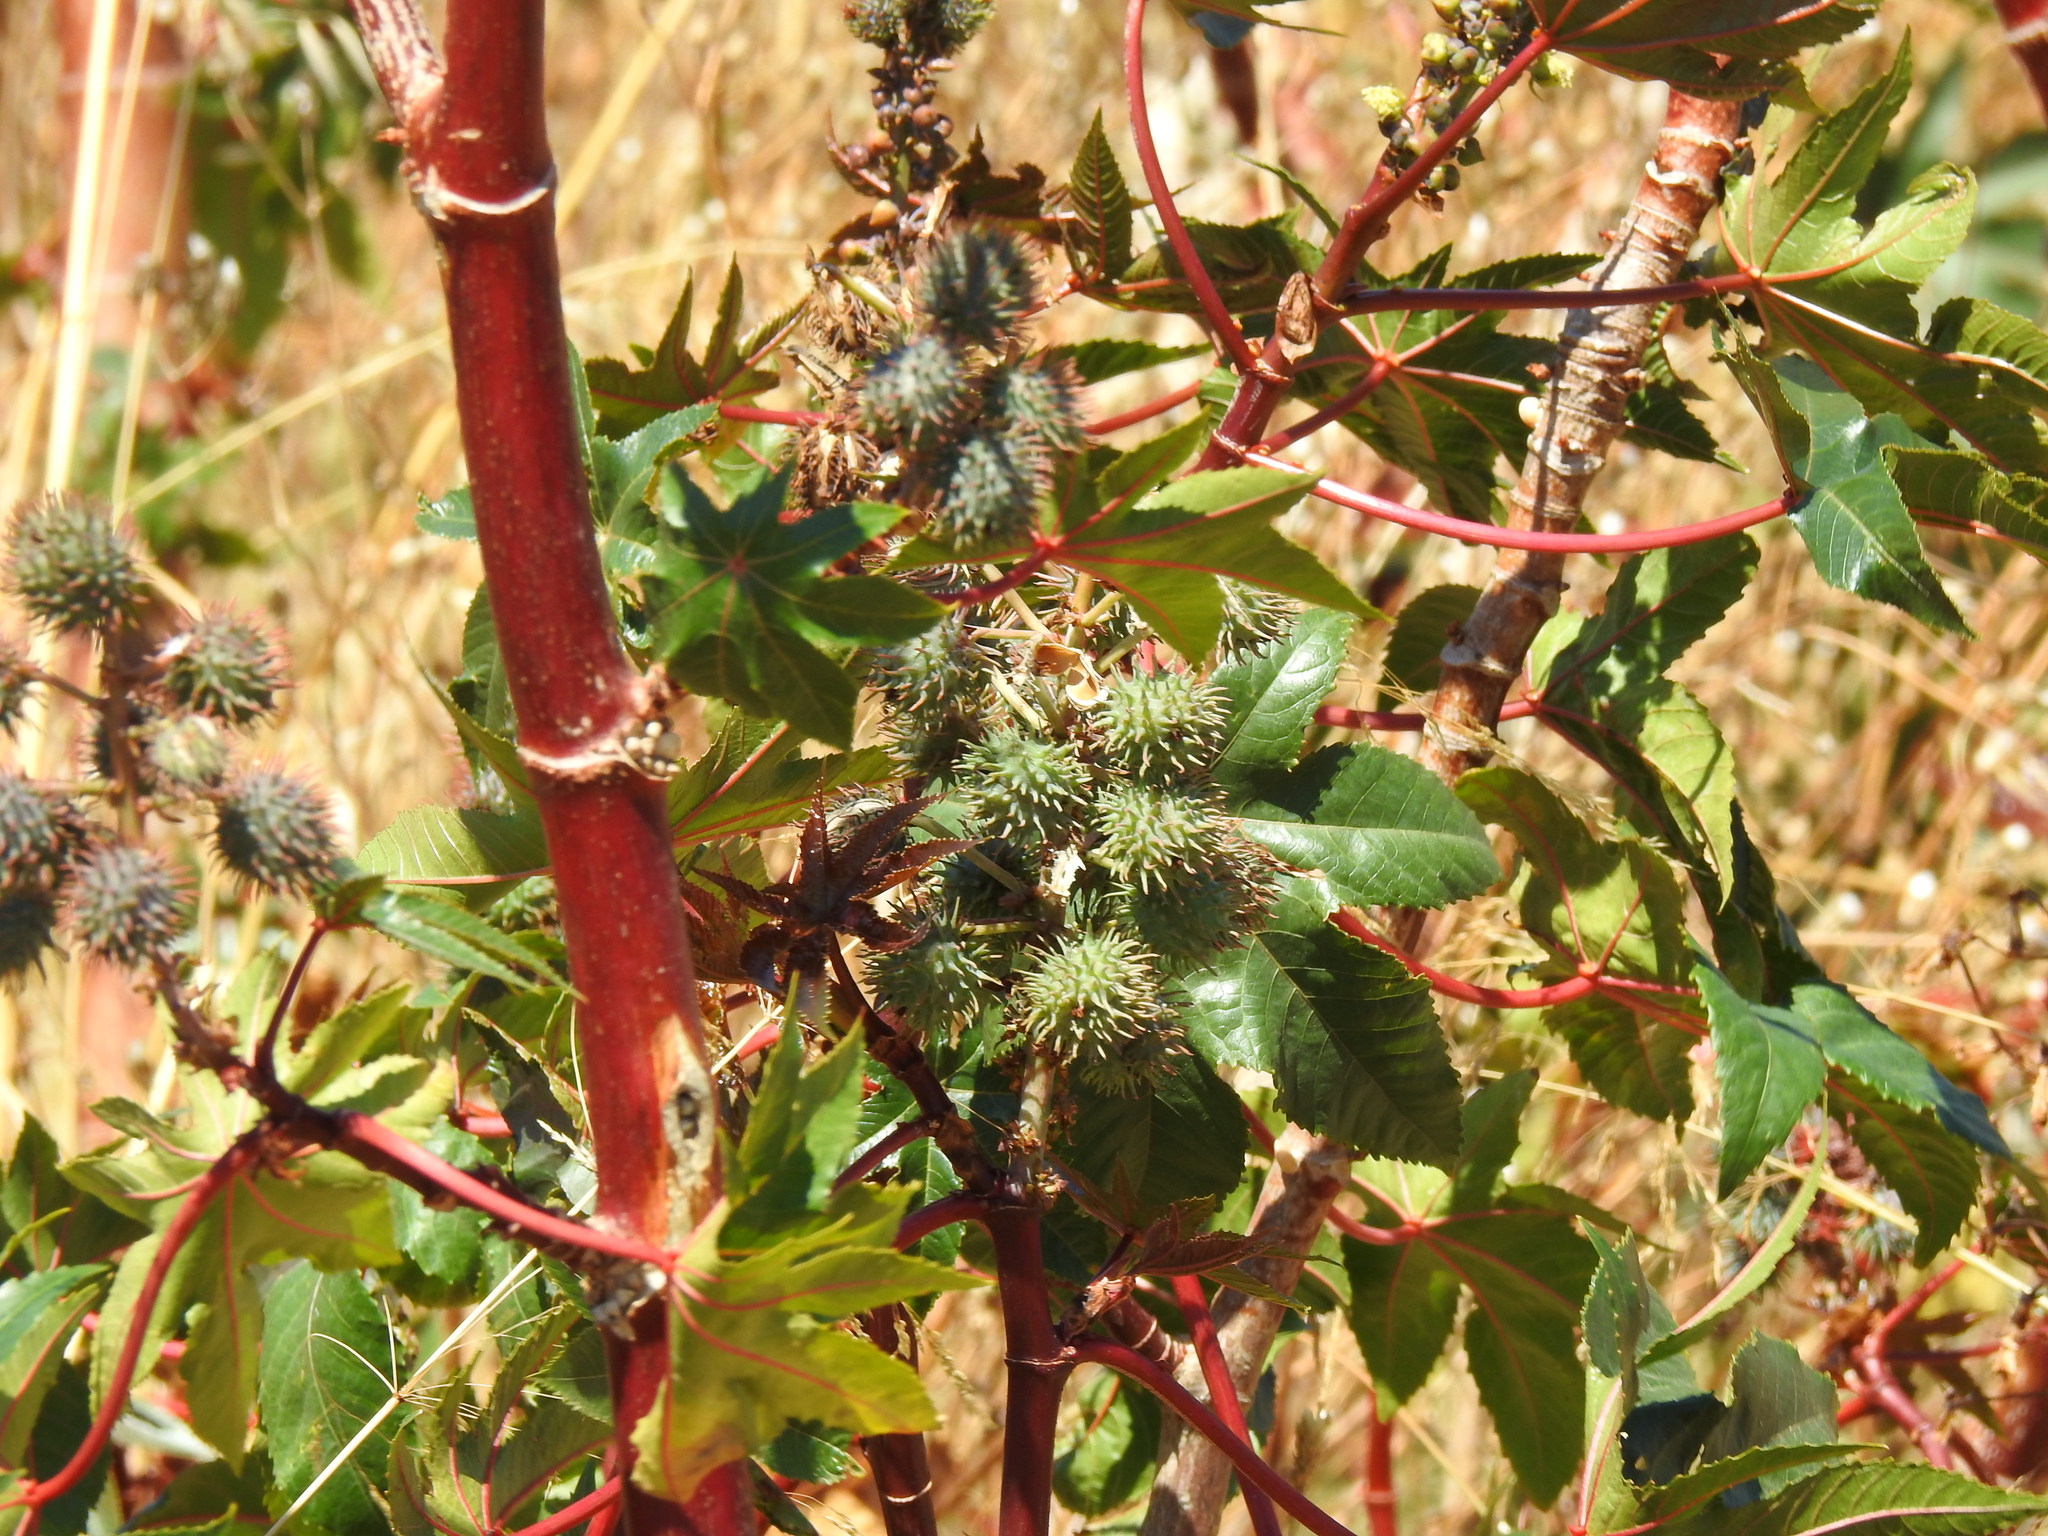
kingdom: Plantae
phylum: Tracheophyta
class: Magnoliopsida
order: Malpighiales
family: Euphorbiaceae
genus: Ricinus
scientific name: Ricinus communis
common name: Castor-oil-plant
